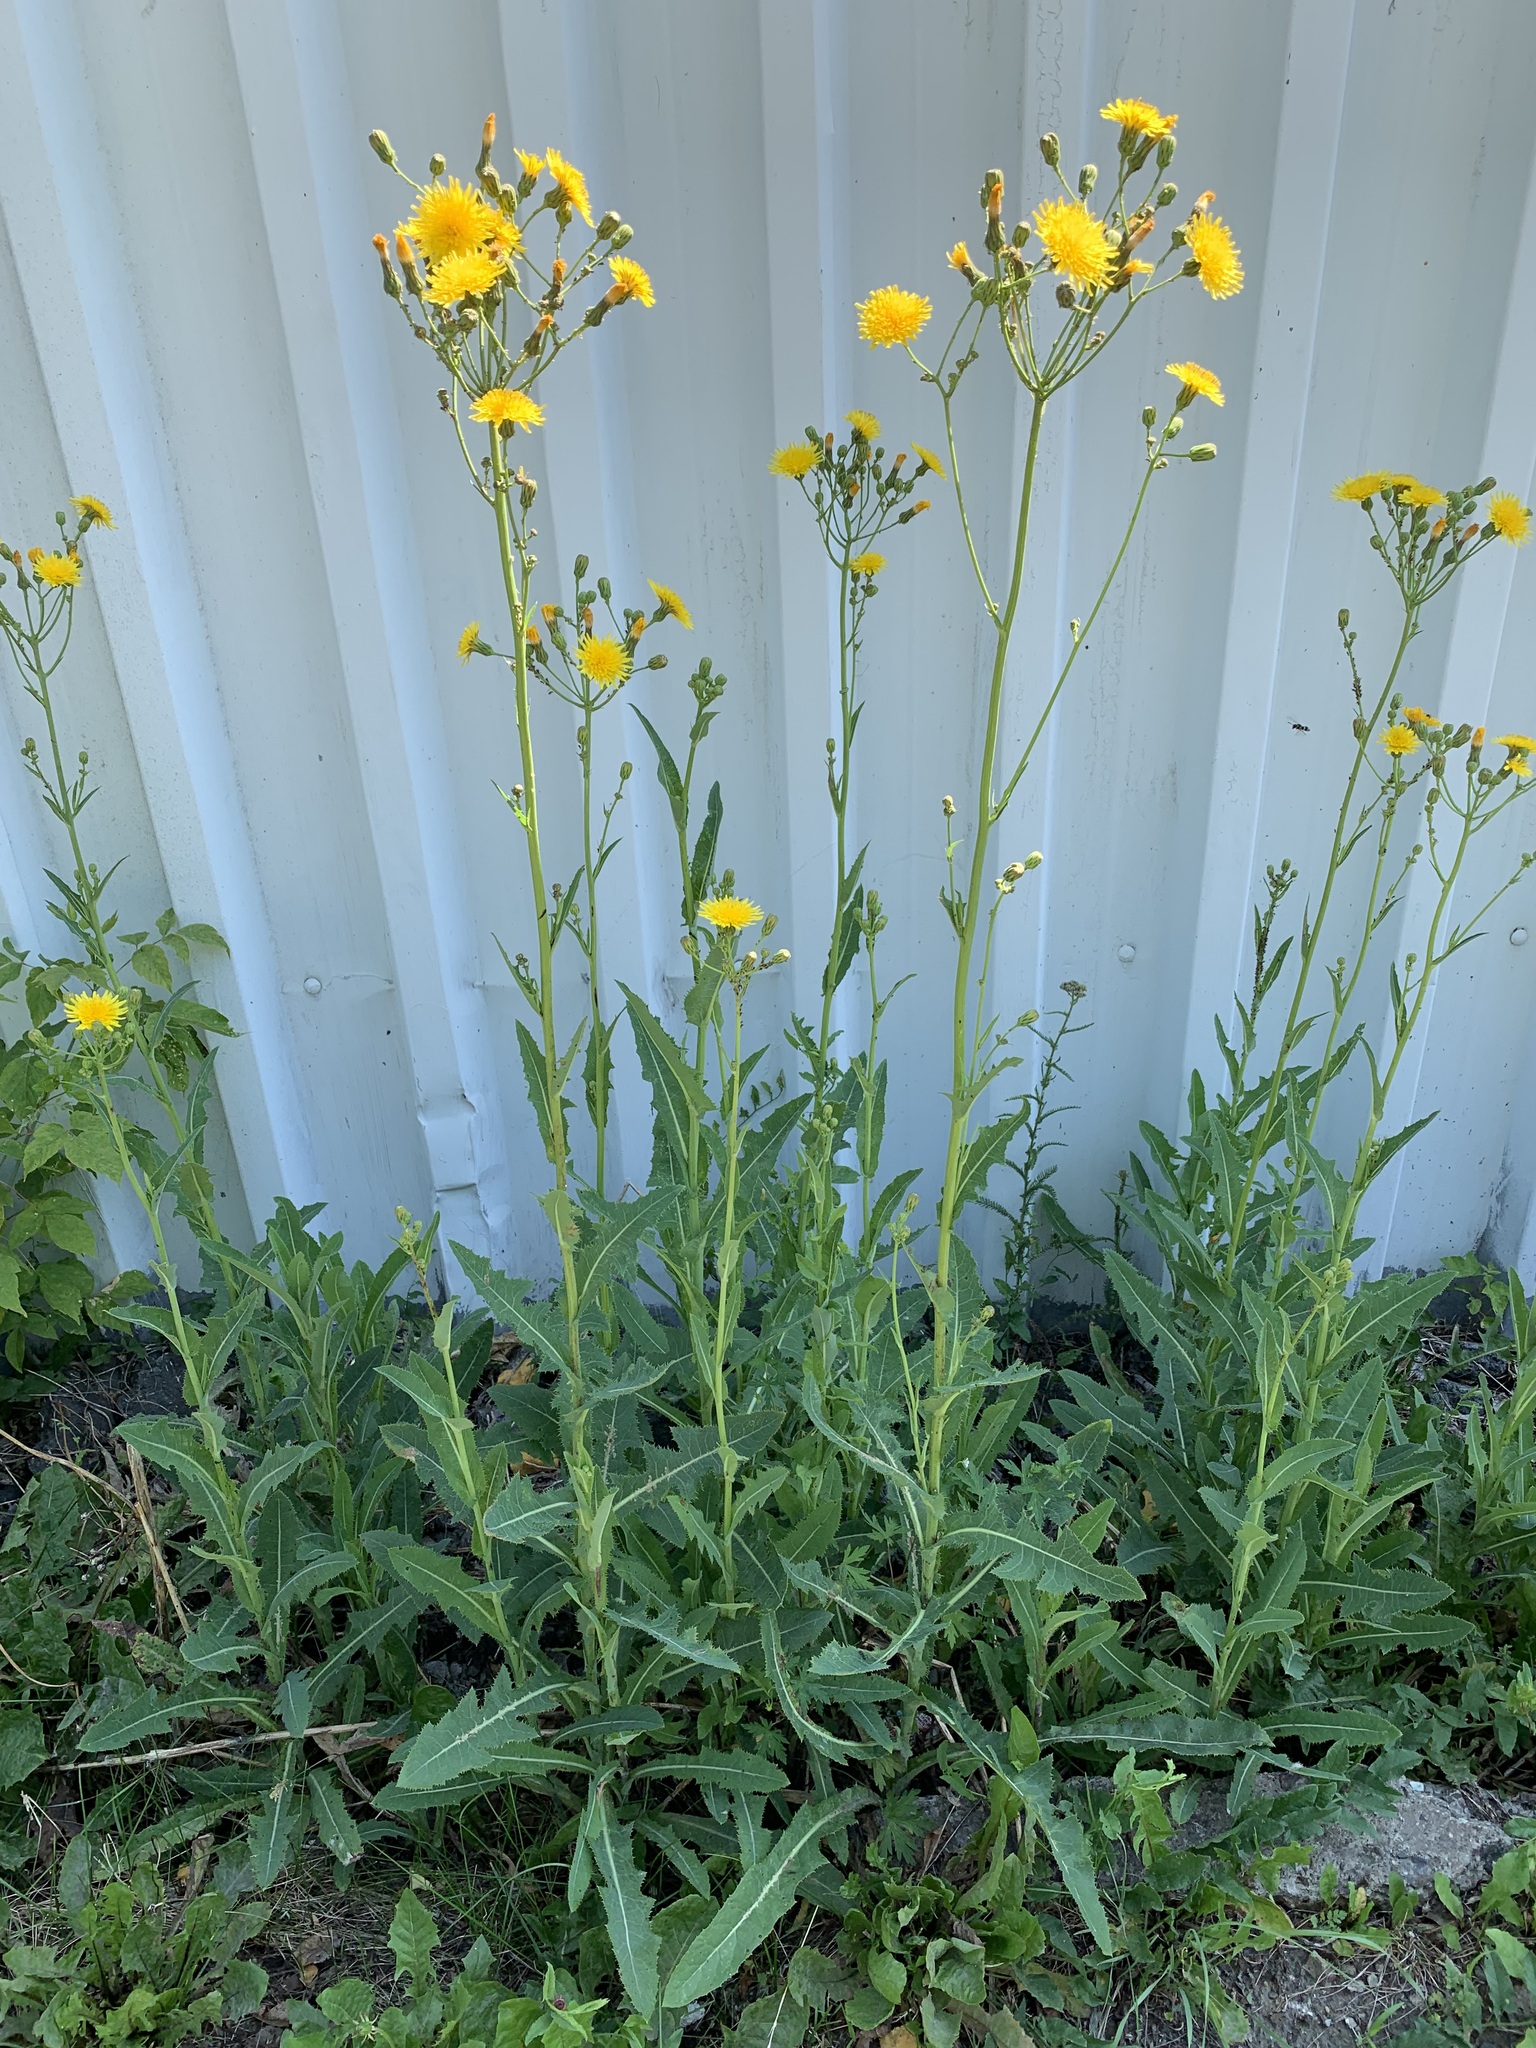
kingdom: Plantae
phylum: Tracheophyta
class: Magnoliopsida
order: Asterales
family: Asteraceae
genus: Sonchus
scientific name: Sonchus arvensis
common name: Perennial sow-thistle
